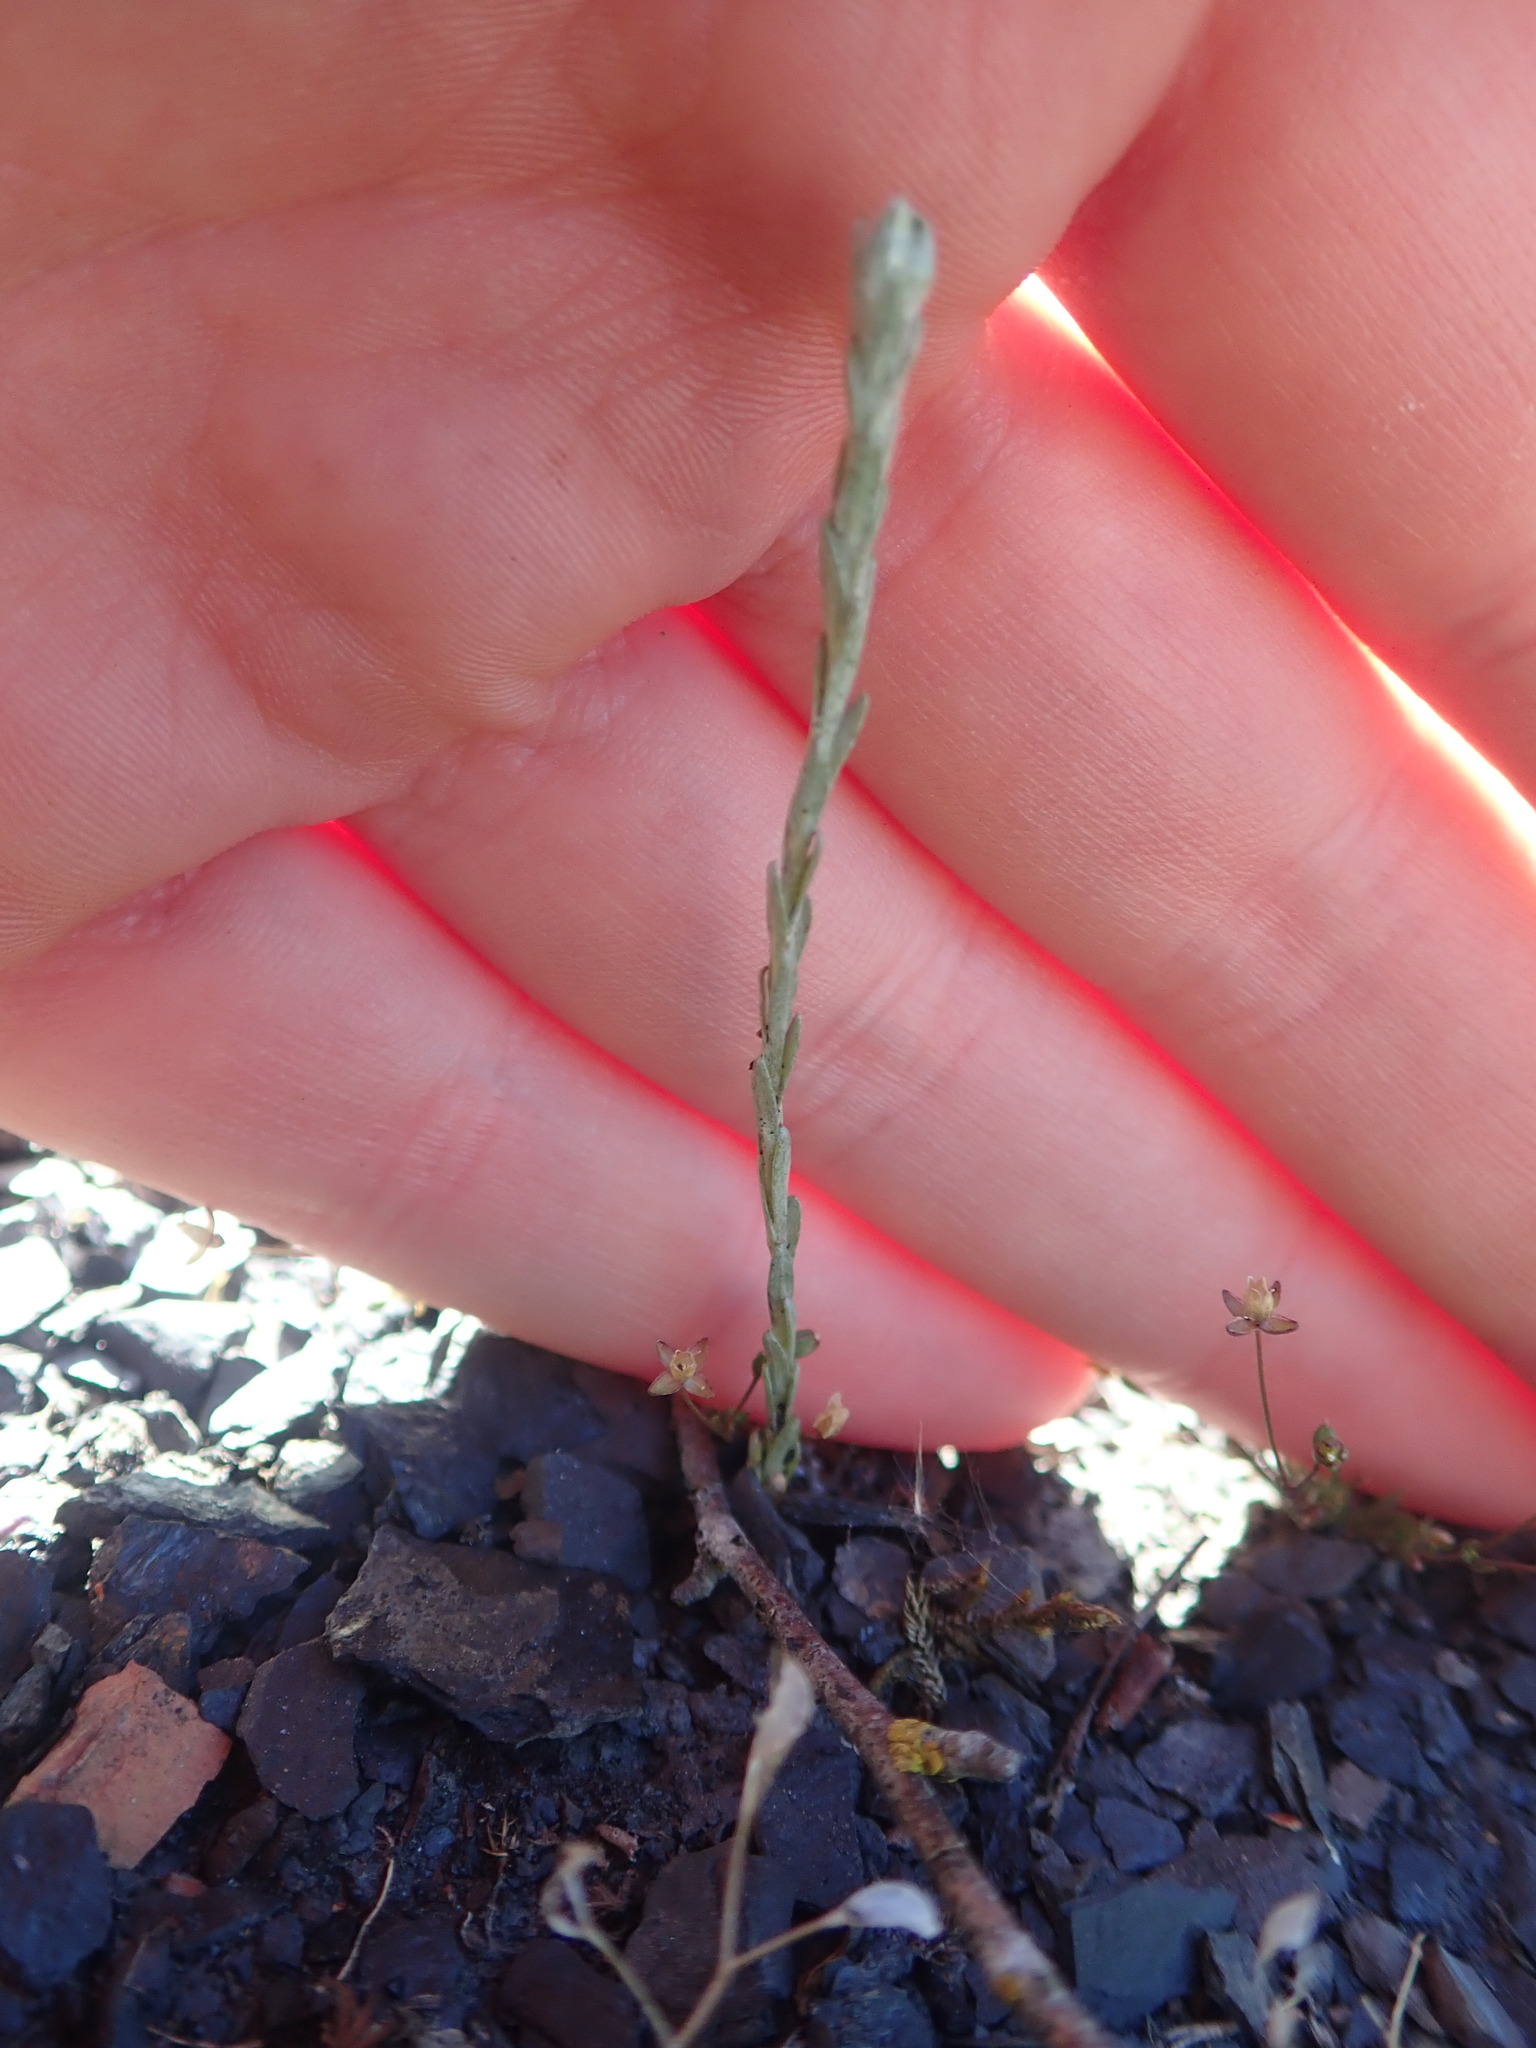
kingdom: Plantae
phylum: Tracheophyta
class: Magnoliopsida
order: Asterales
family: Asteraceae
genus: Logfia
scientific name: Logfia minima
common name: Little cottonrose
